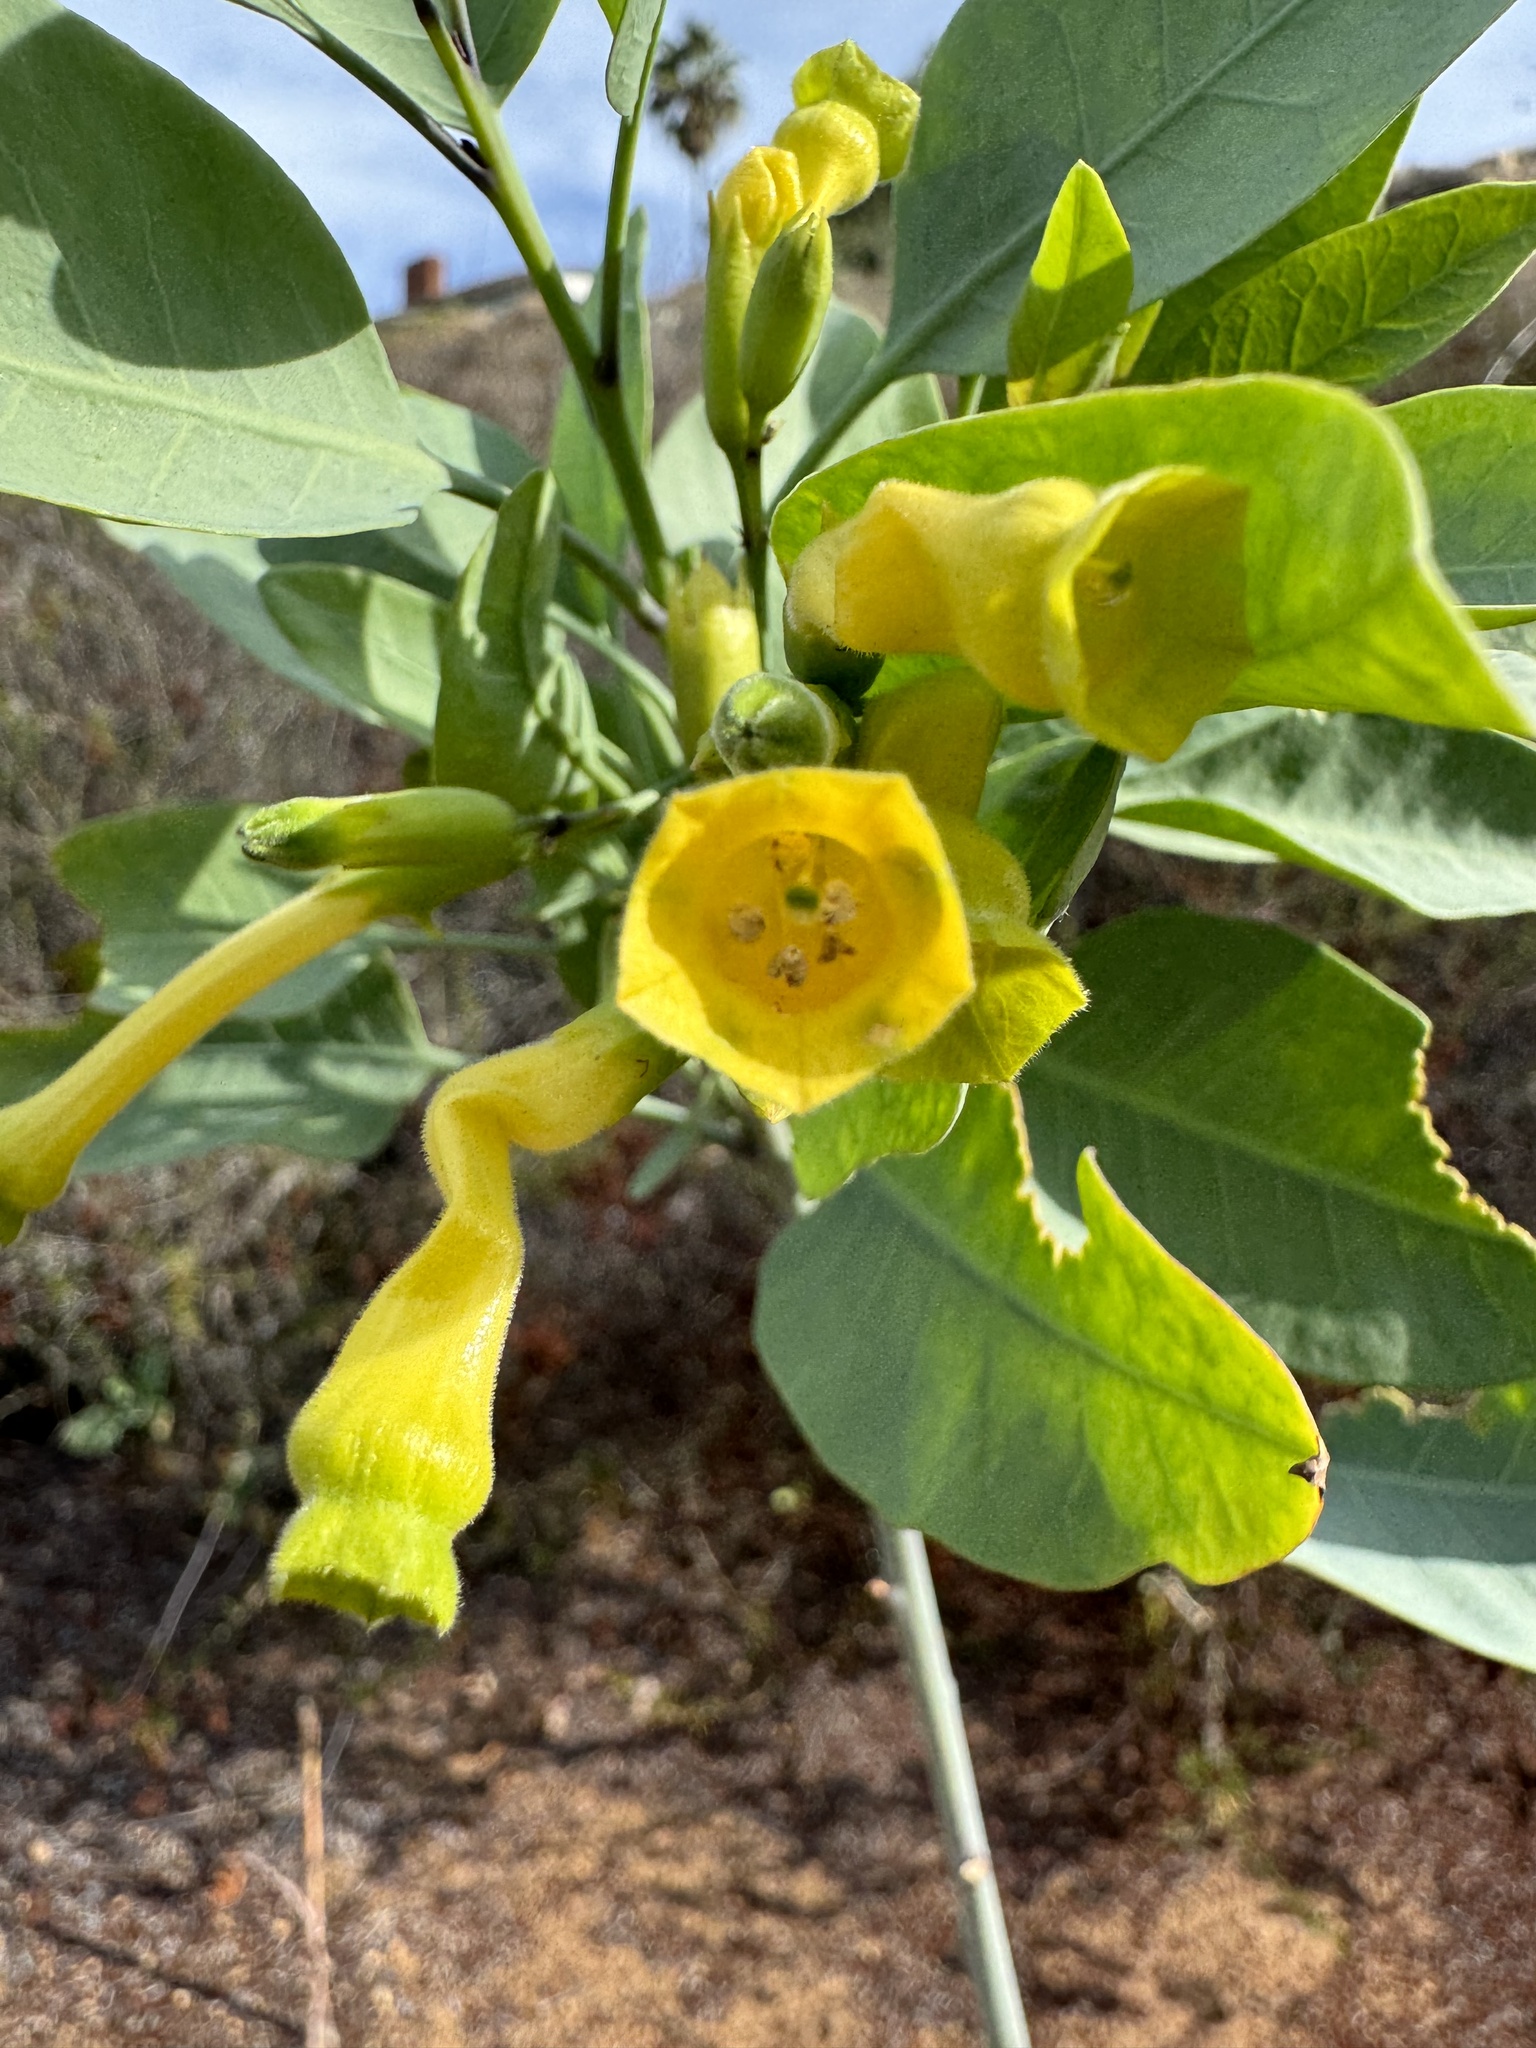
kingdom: Plantae
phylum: Tracheophyta
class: Magnoliopsida
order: Solanales
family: Solanaceae
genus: Nicotiana
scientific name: Nicotiana glauca
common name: Tree tobacco
